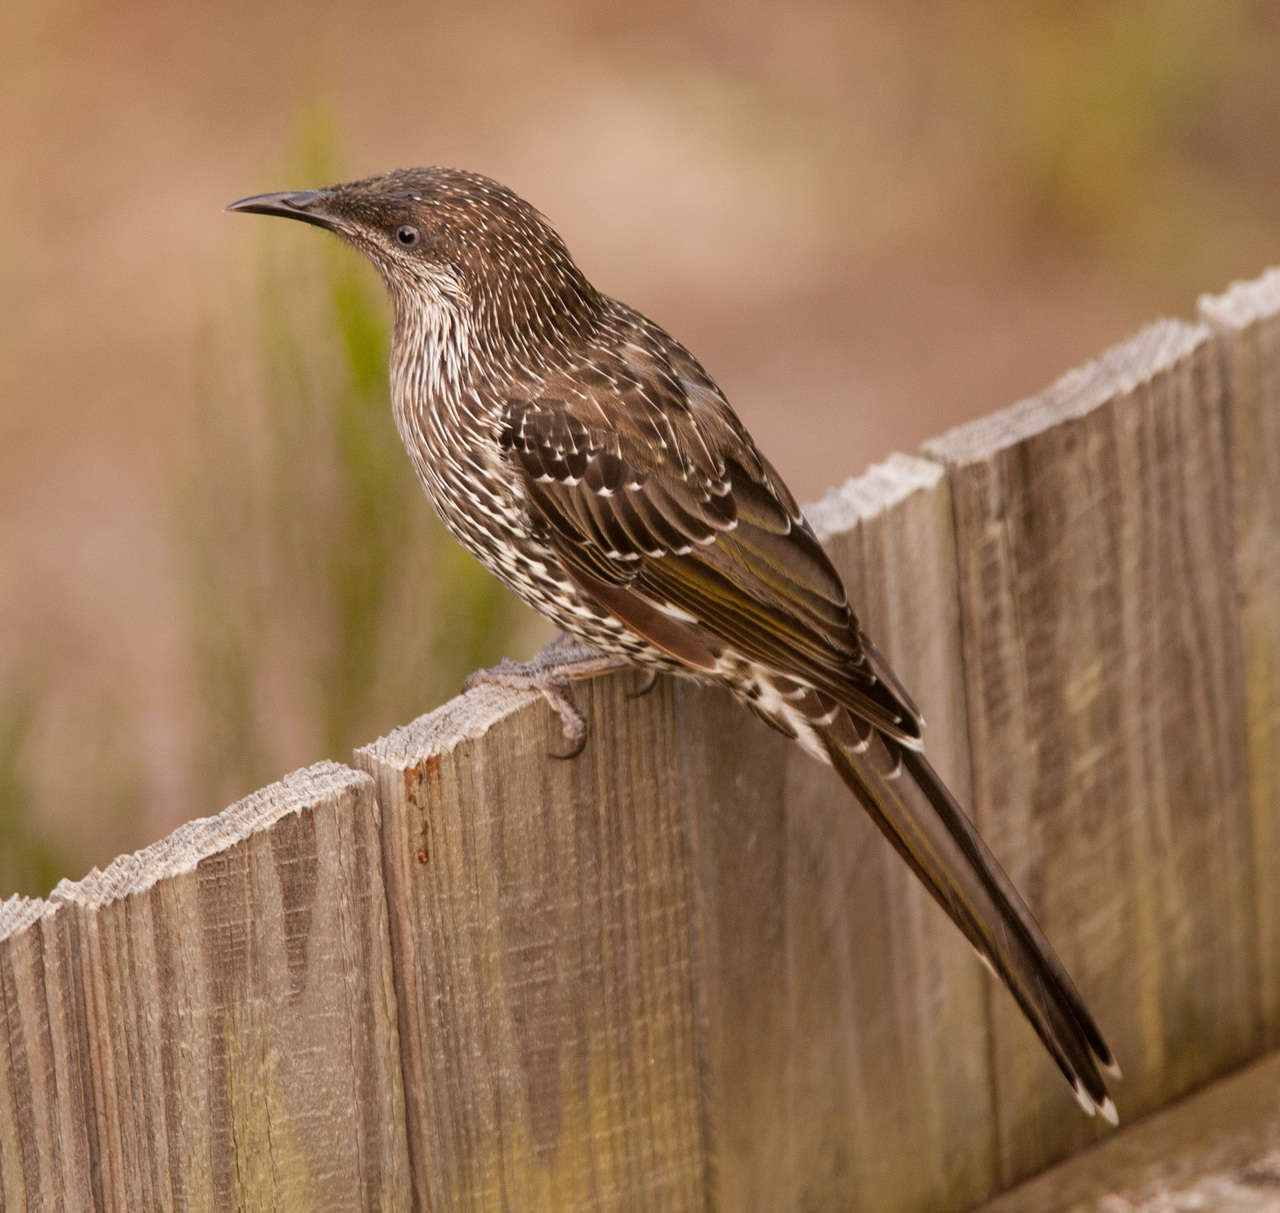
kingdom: Animalia
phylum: Chordata
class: Aves
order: Passeriformes
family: Meliphagidae
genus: Anthochaera
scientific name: Anthochaera chrysoptera
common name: Little wattlebird
